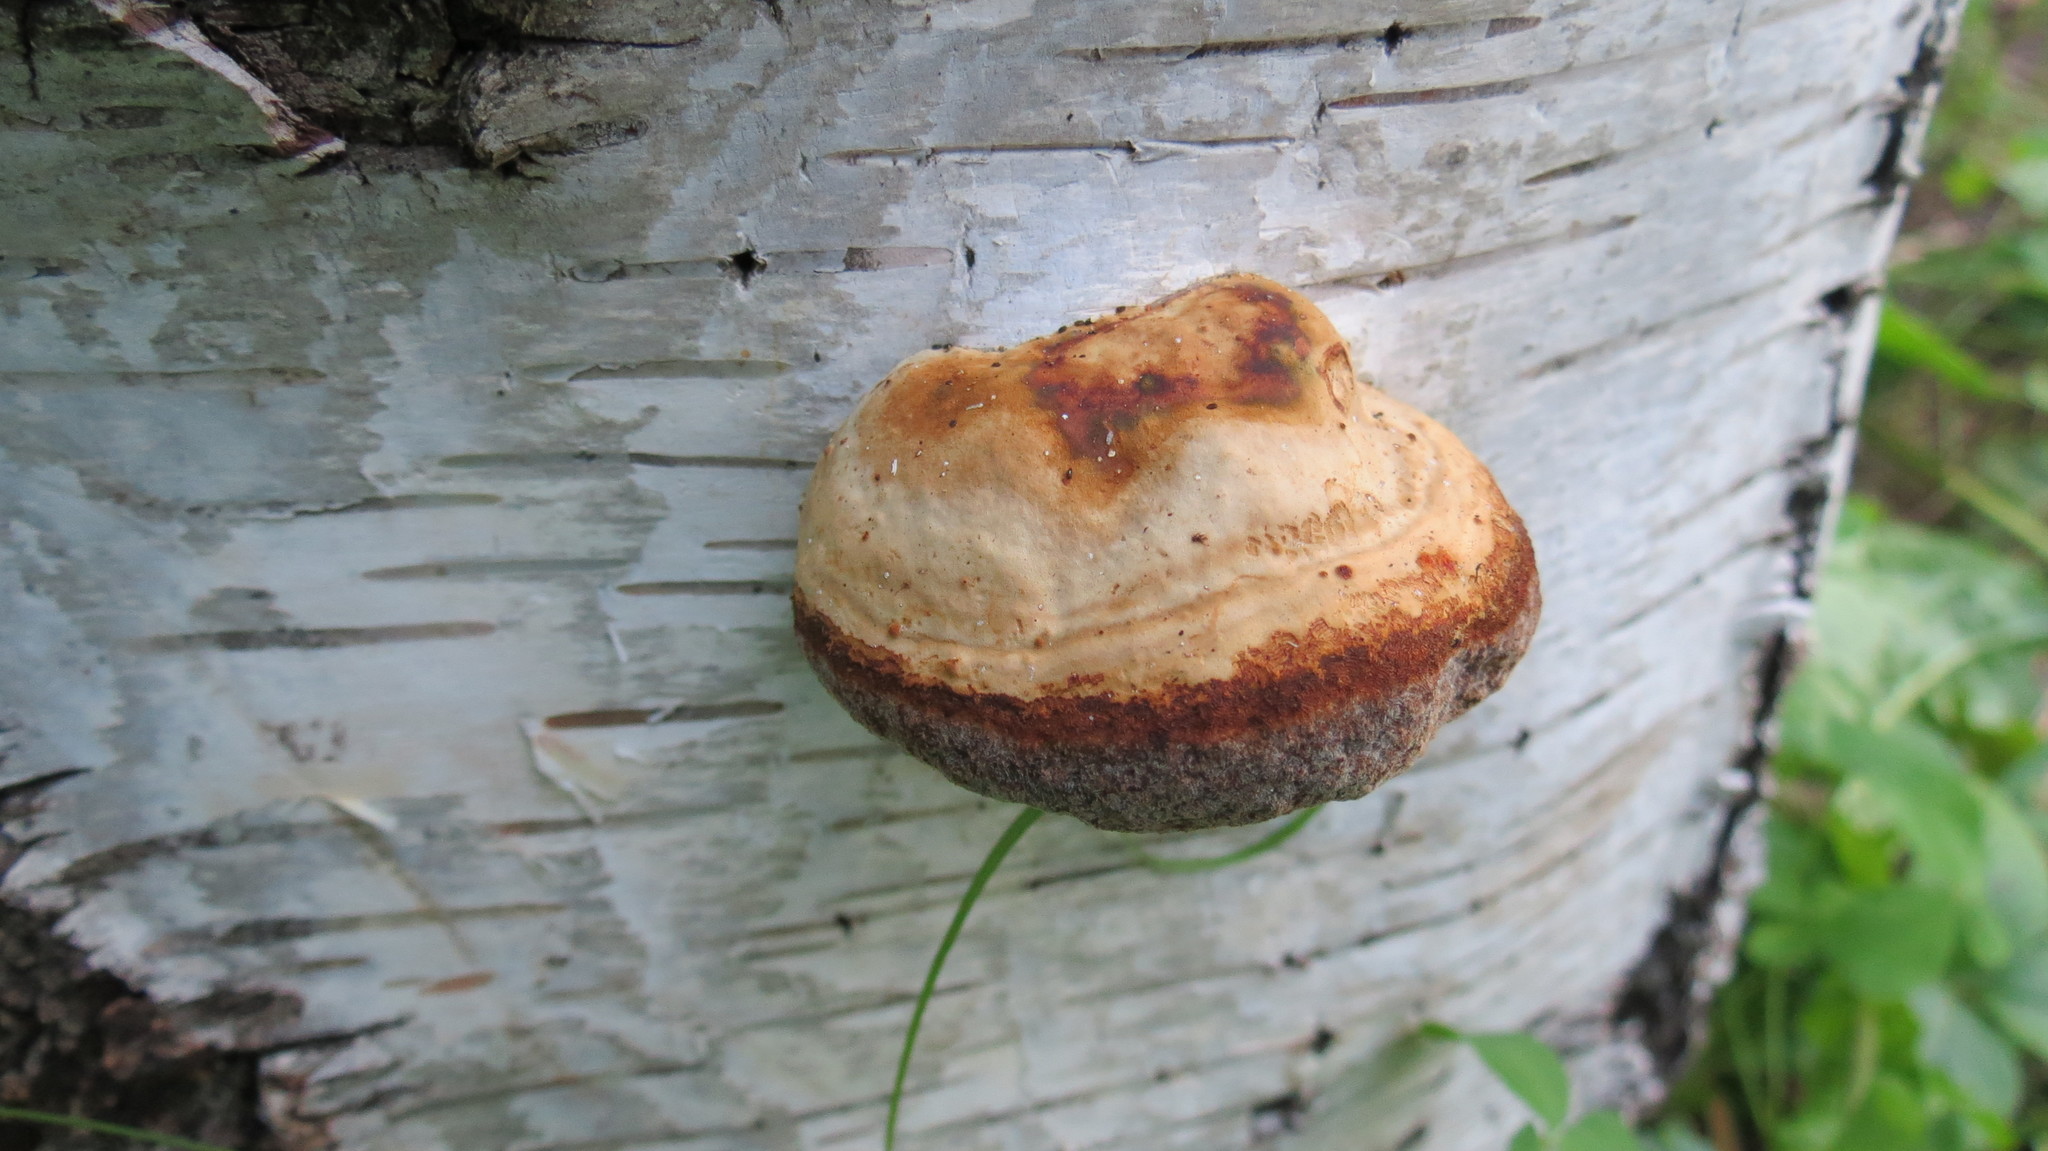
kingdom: Fungi
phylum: Basidiomycota
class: Agaricomycetes
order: Polyporales
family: Polyporaceae
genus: Fomes
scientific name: Fomes fomentarius
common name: Hoof fungus
